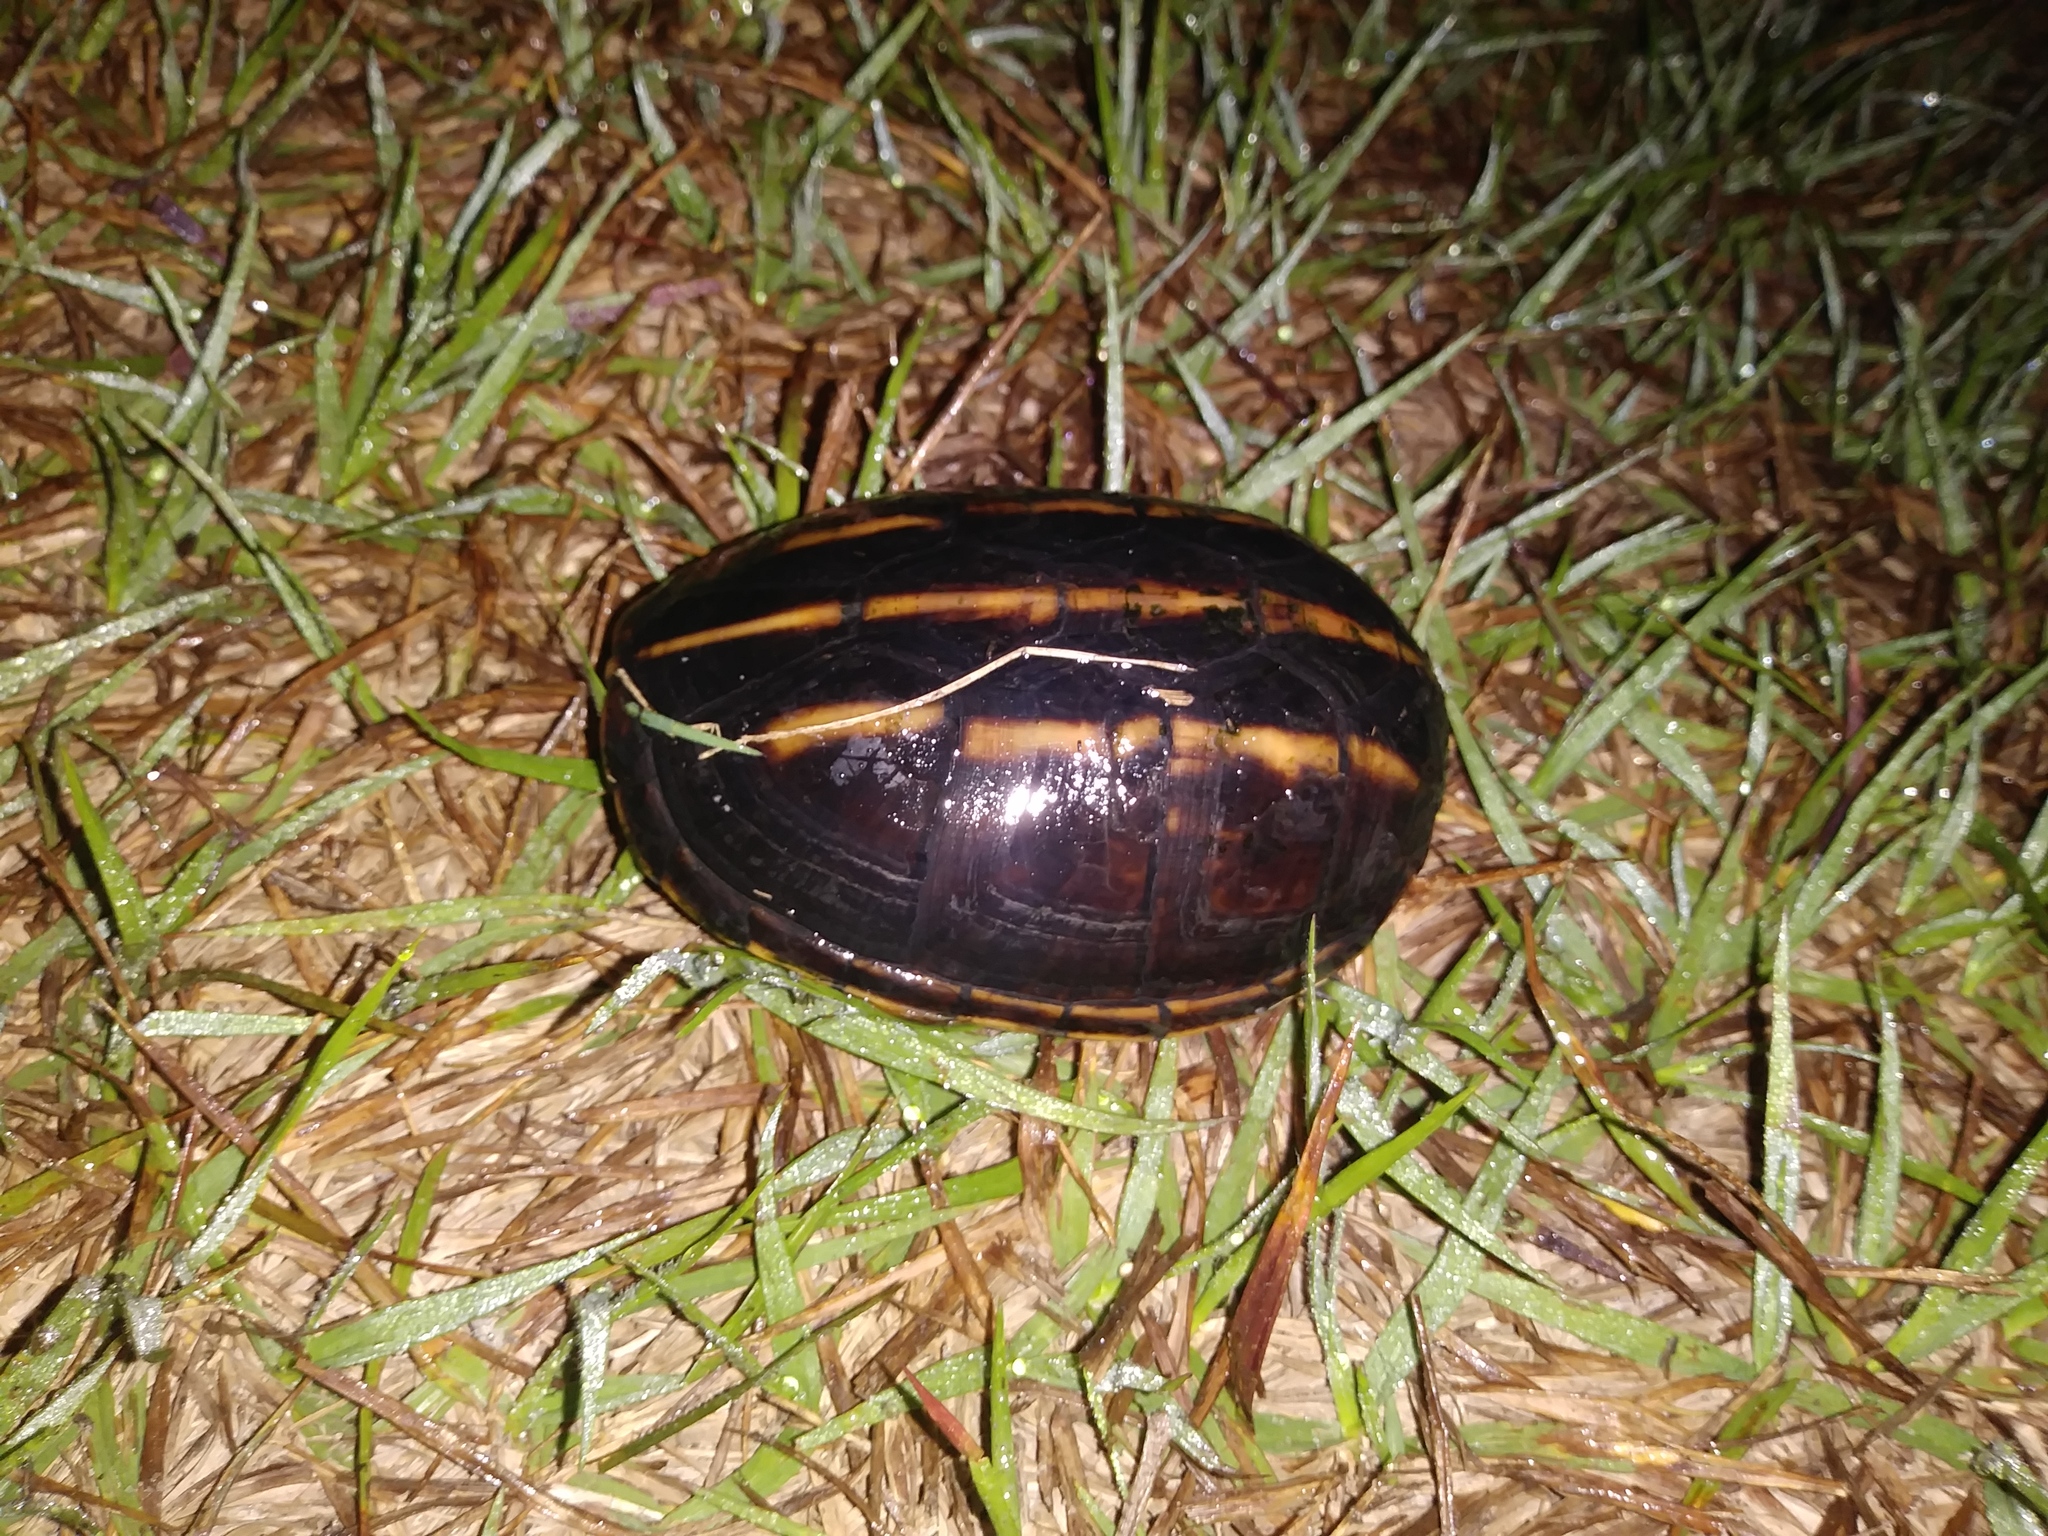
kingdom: Animalia
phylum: Chordata
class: Testudines
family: Kinosternidae
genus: Kinosternon
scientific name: Kinosternon baurii
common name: Striped mud turtle
